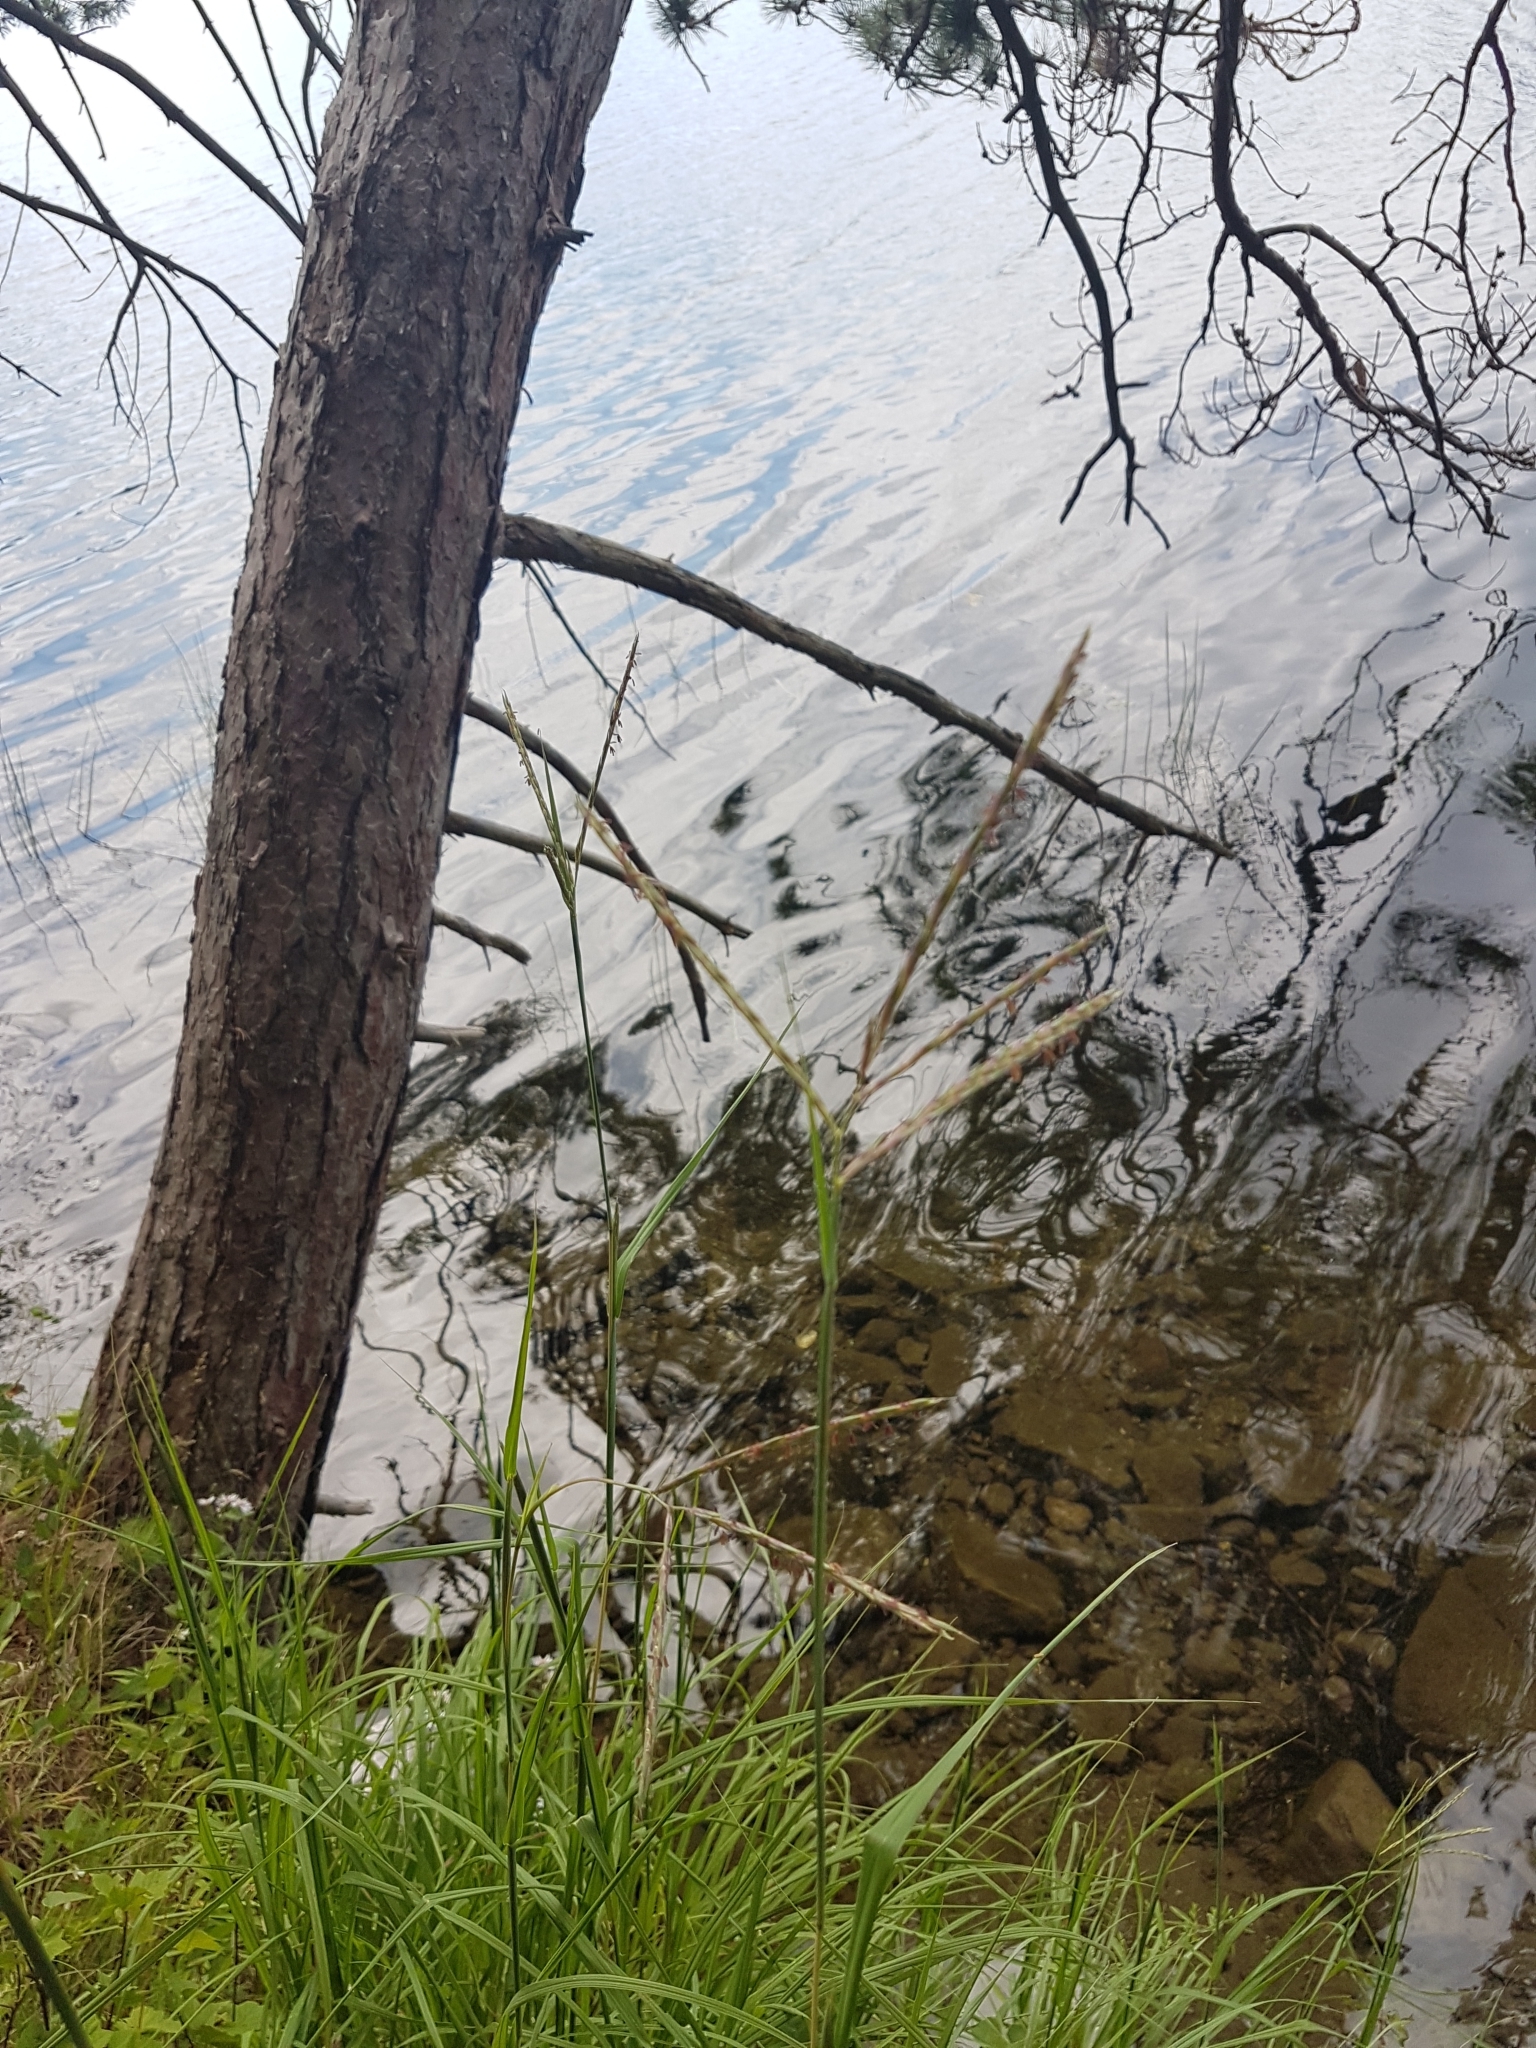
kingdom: Plantae
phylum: Tracheophyta
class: Liliopsida
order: Poales
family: Poaceae
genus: Andropogon
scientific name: Andropogon gerardi
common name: Big bluestem
